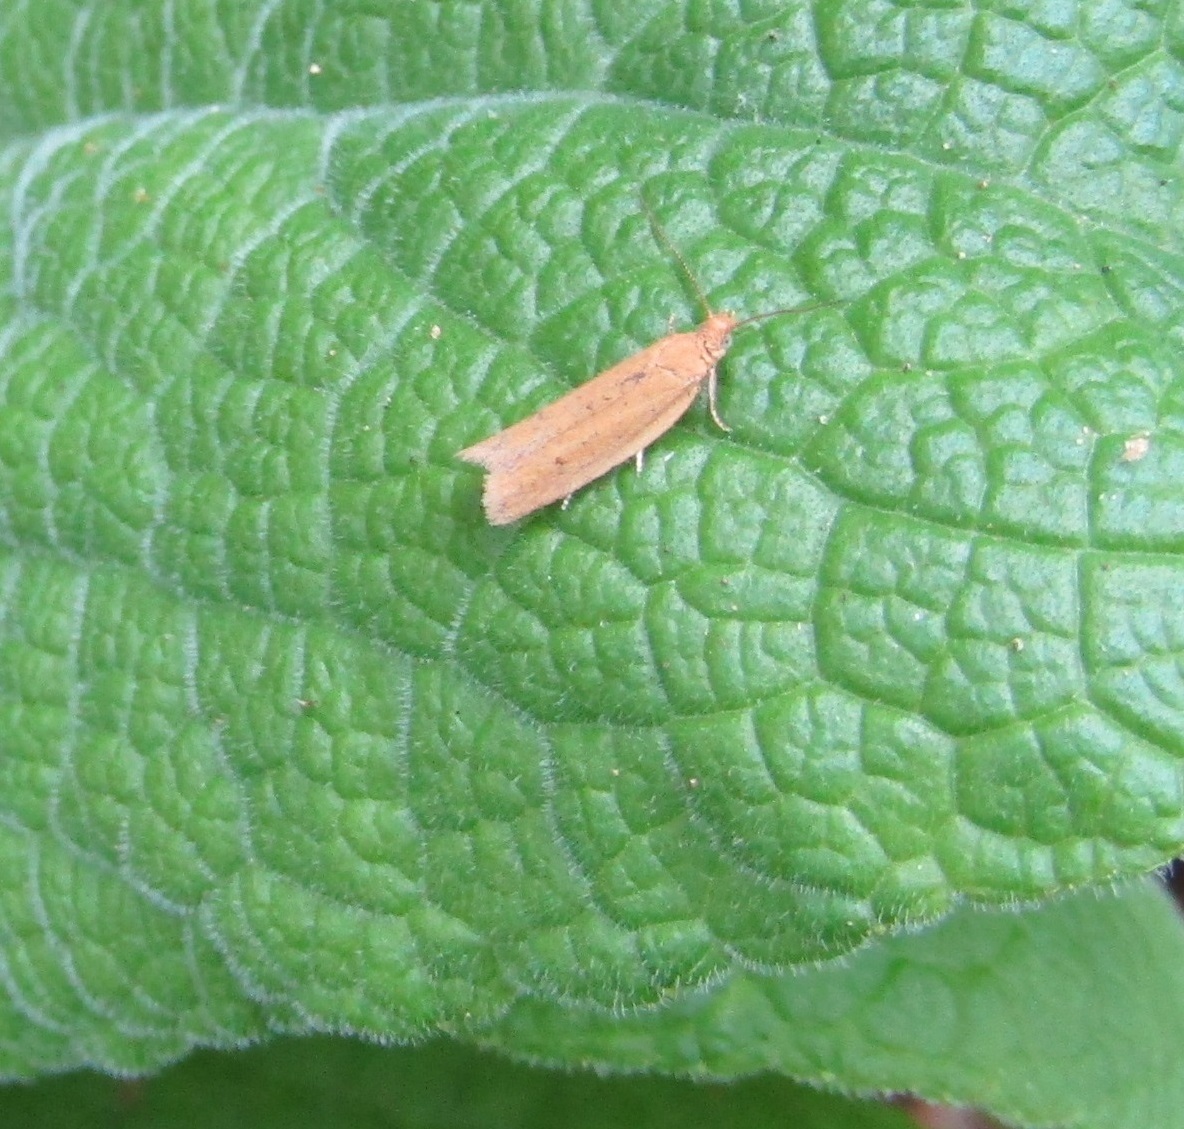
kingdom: Animalia
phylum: Arthropoda
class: Insecta
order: Lepidoptera
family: Tortricidae
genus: Epichorista
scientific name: Epichorista siriana
